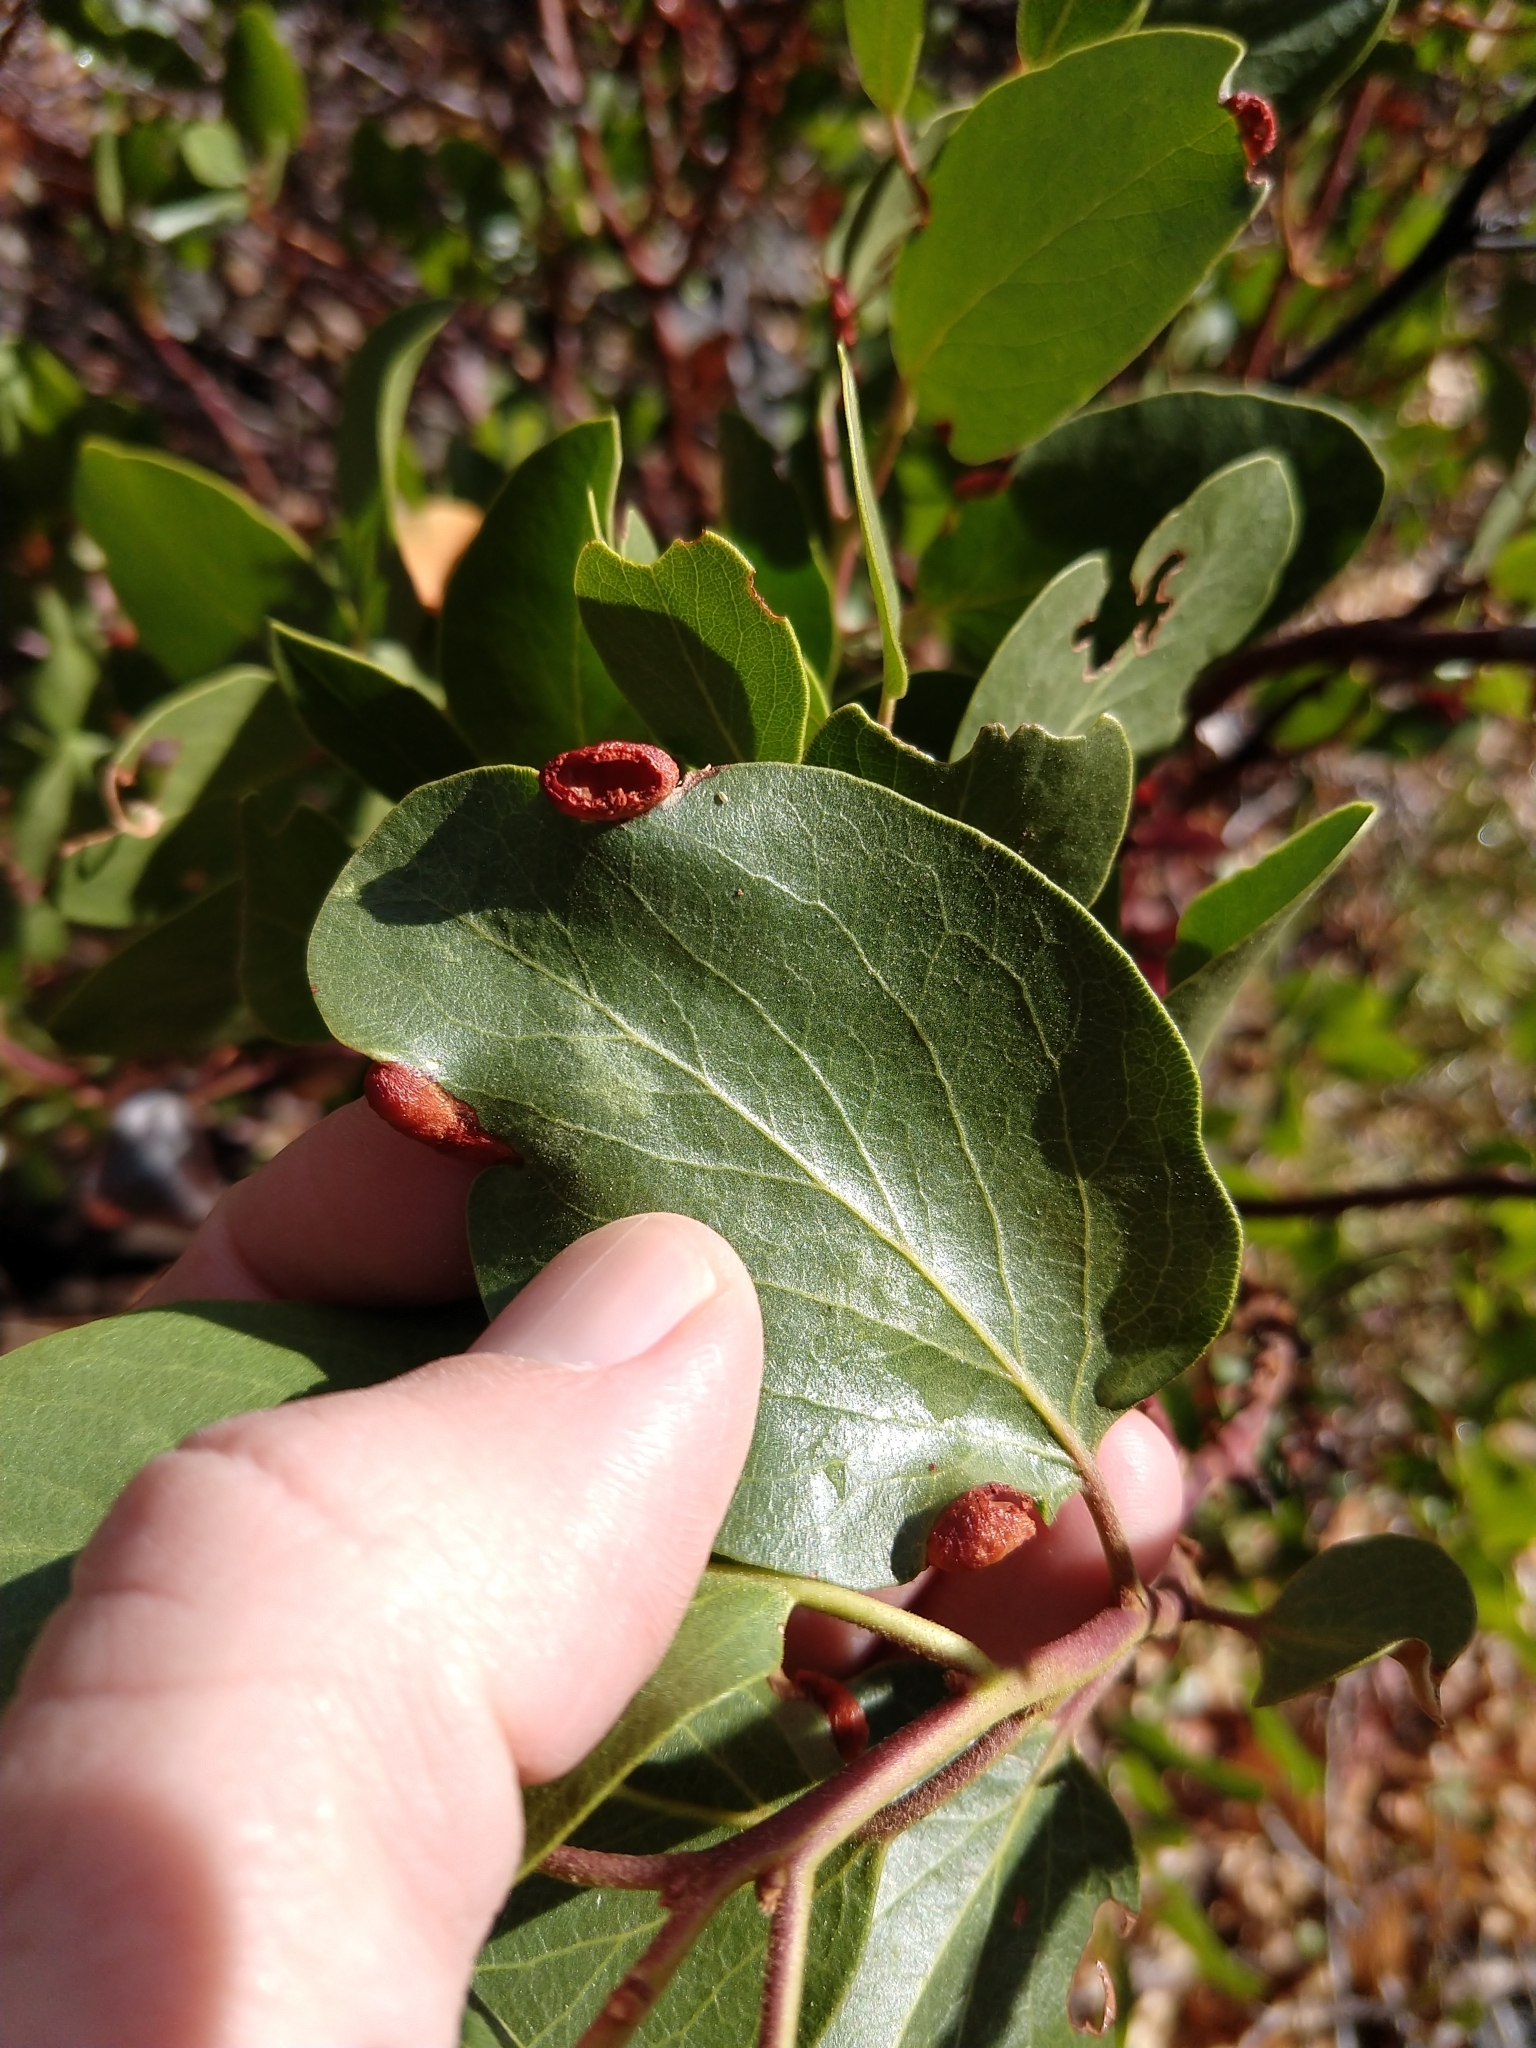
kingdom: Animalia
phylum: Arthropoda
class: Insecta
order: Hemiptera
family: Aphididae
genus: Tamalia
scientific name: Tamalia coweni
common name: Manzanita leafgall aphid
